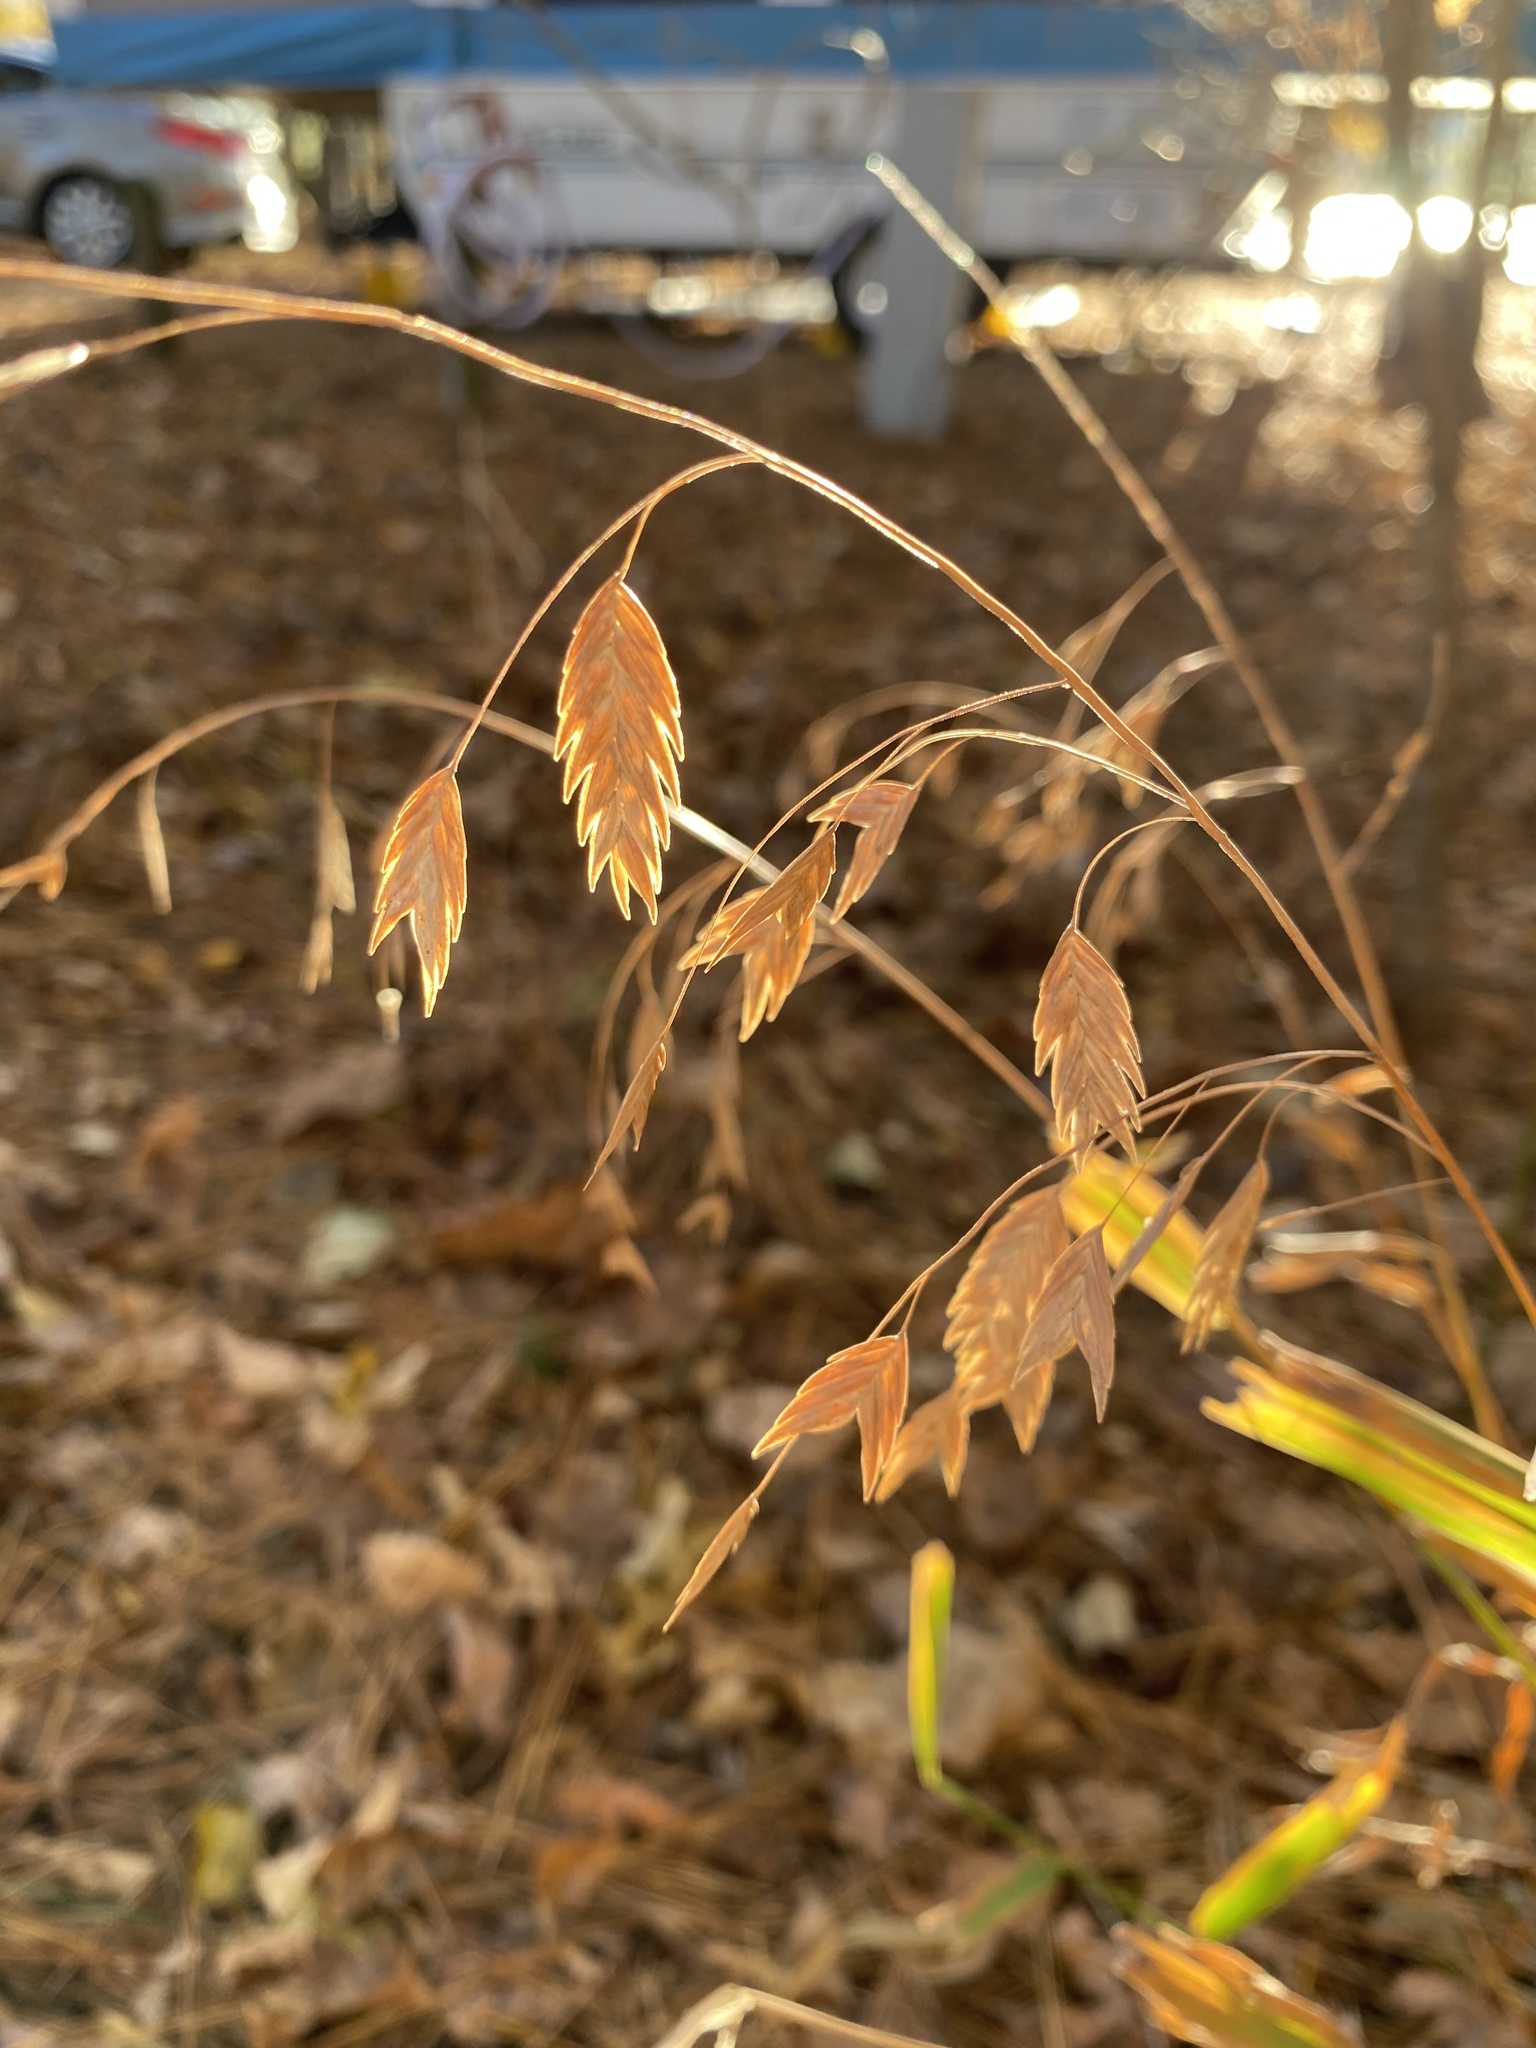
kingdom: Plantae
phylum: Tracheophyta
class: Liliopsida
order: Poales
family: Poaceae
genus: Chasmanthium
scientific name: Chasmanthium latifolium
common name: Broad-leaved chasmanthium
